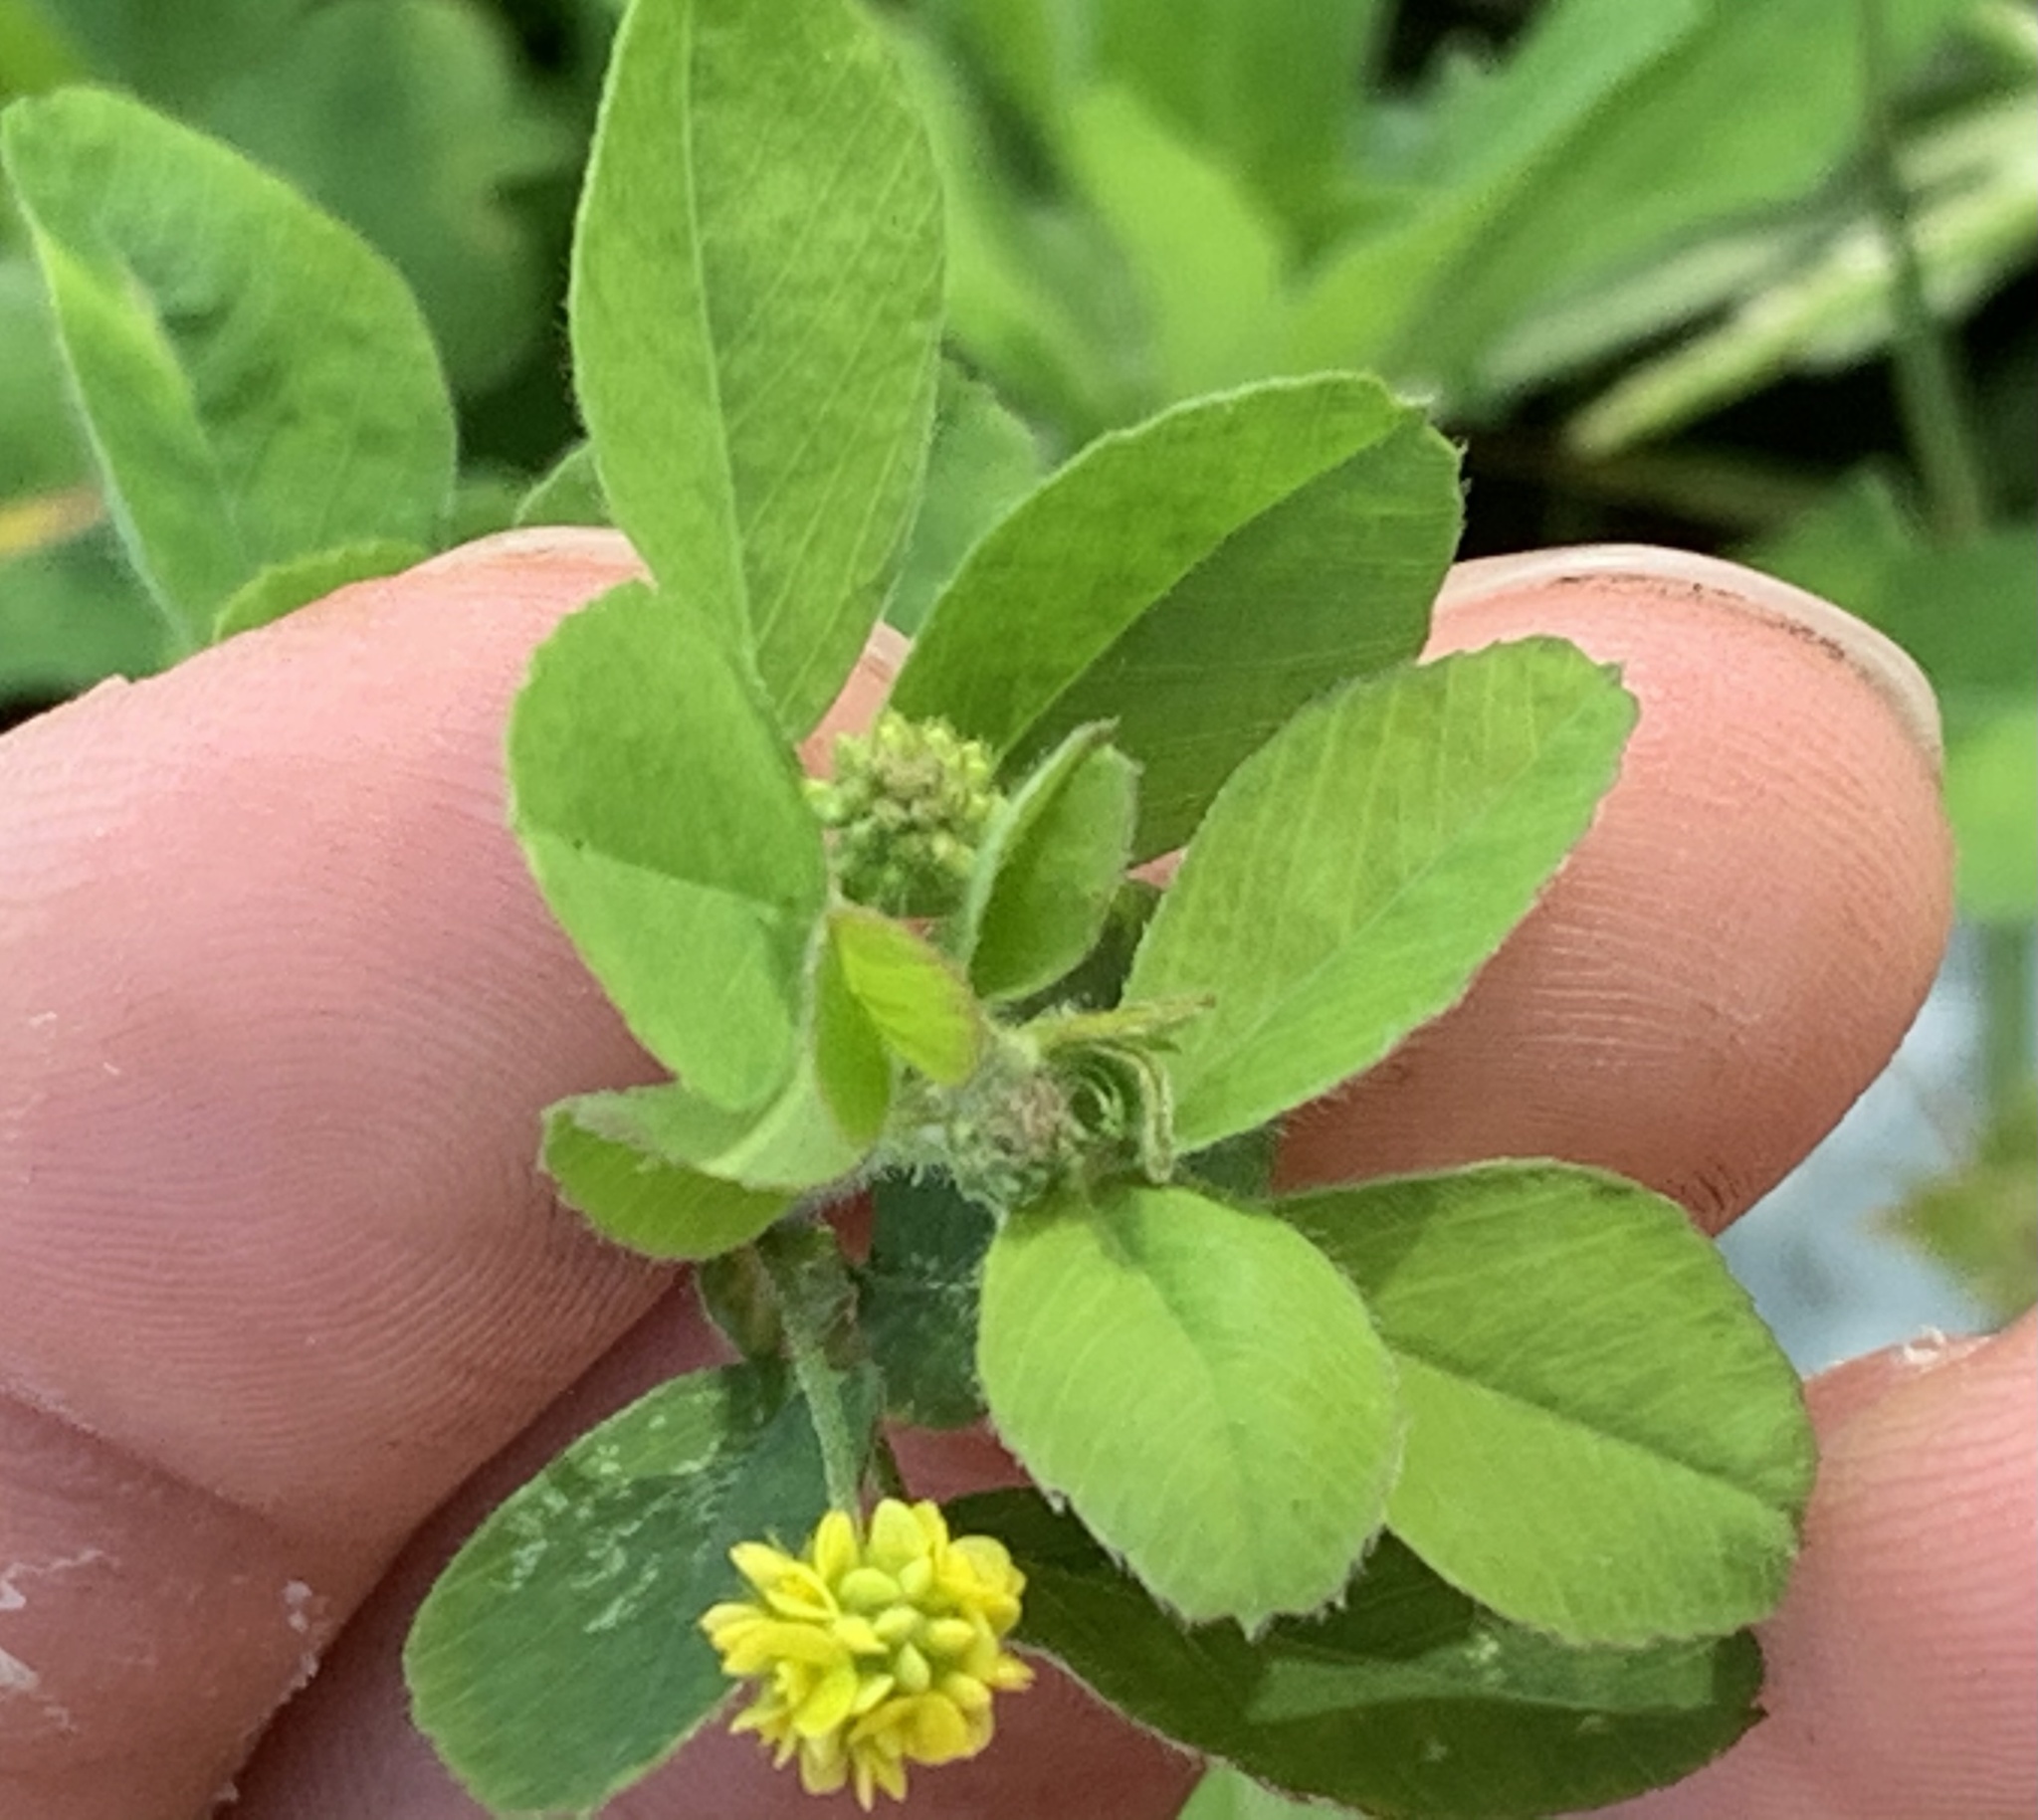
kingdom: Plantae
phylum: Tracheophyta
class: Magnoliopsida
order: Fabales
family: Fabaceae
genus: Medicago
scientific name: Medicago lupulina
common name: Black medick
